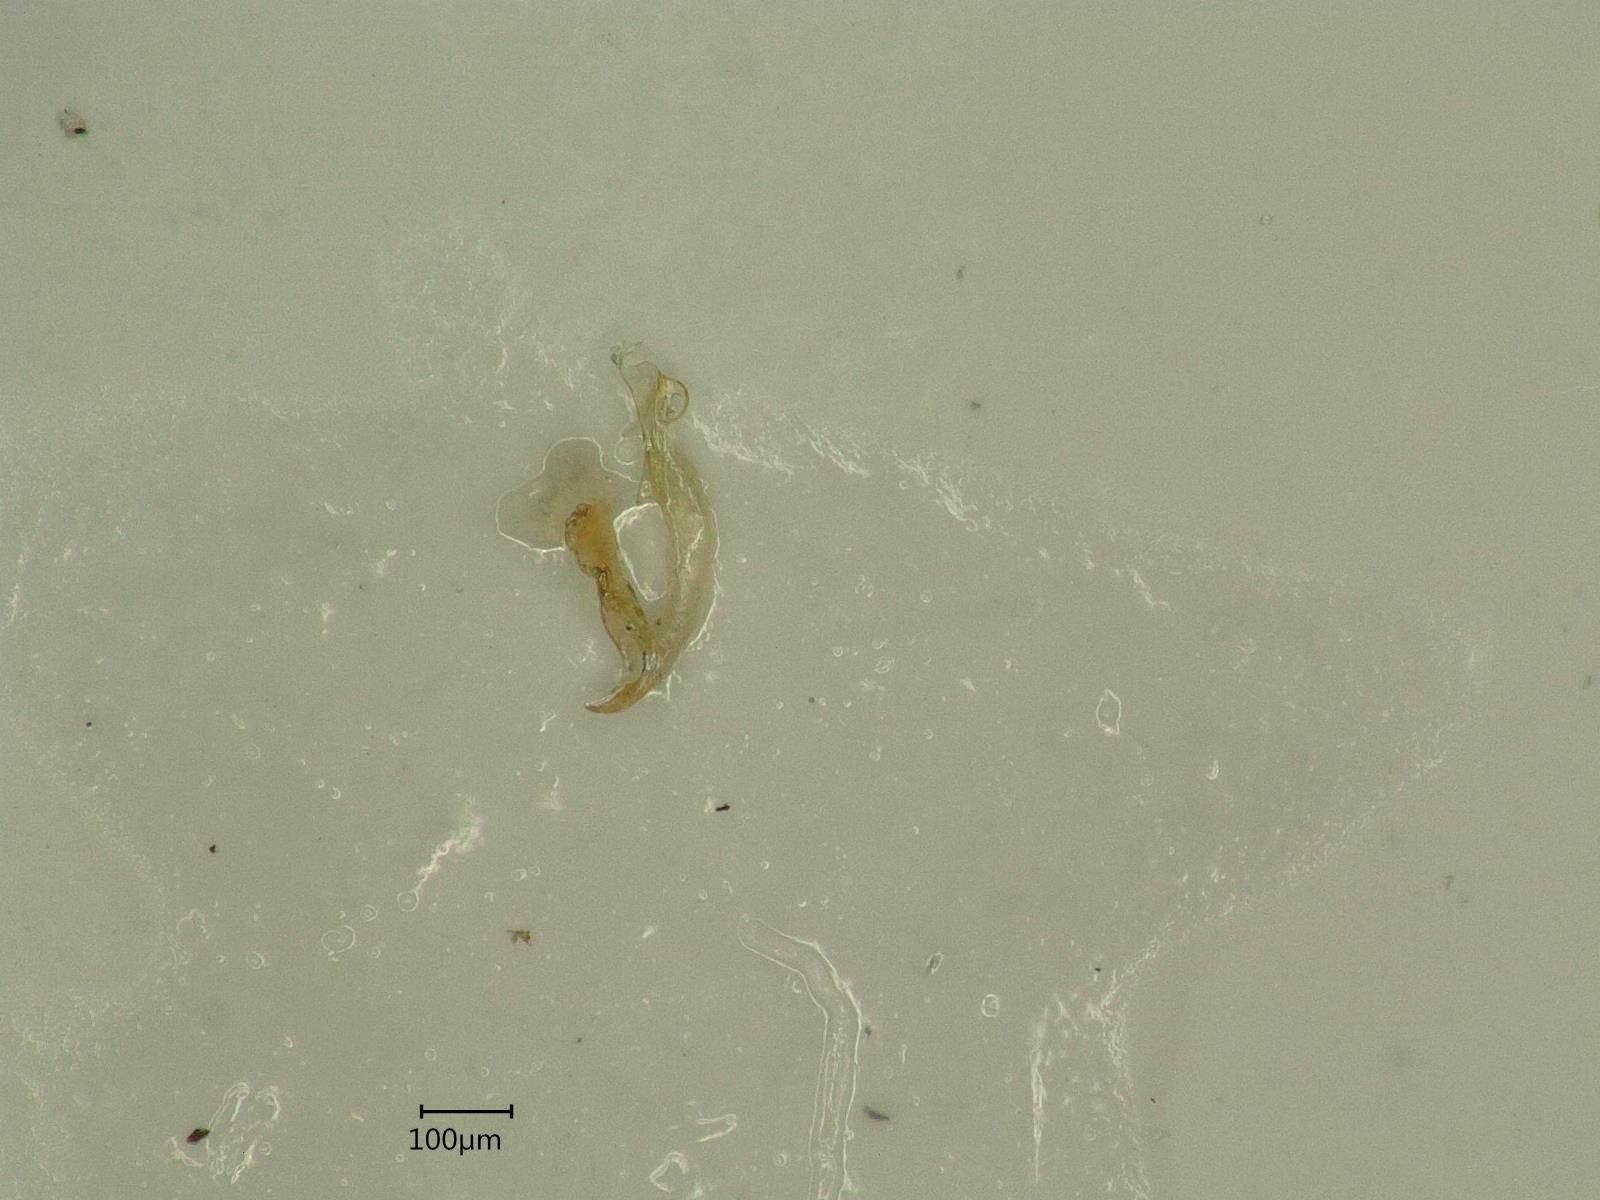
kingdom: Animalia
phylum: Arthropoda
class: Insecta
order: Hemiptera
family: Cicadellidae
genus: Dikraneura
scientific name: Dikraneura variata
